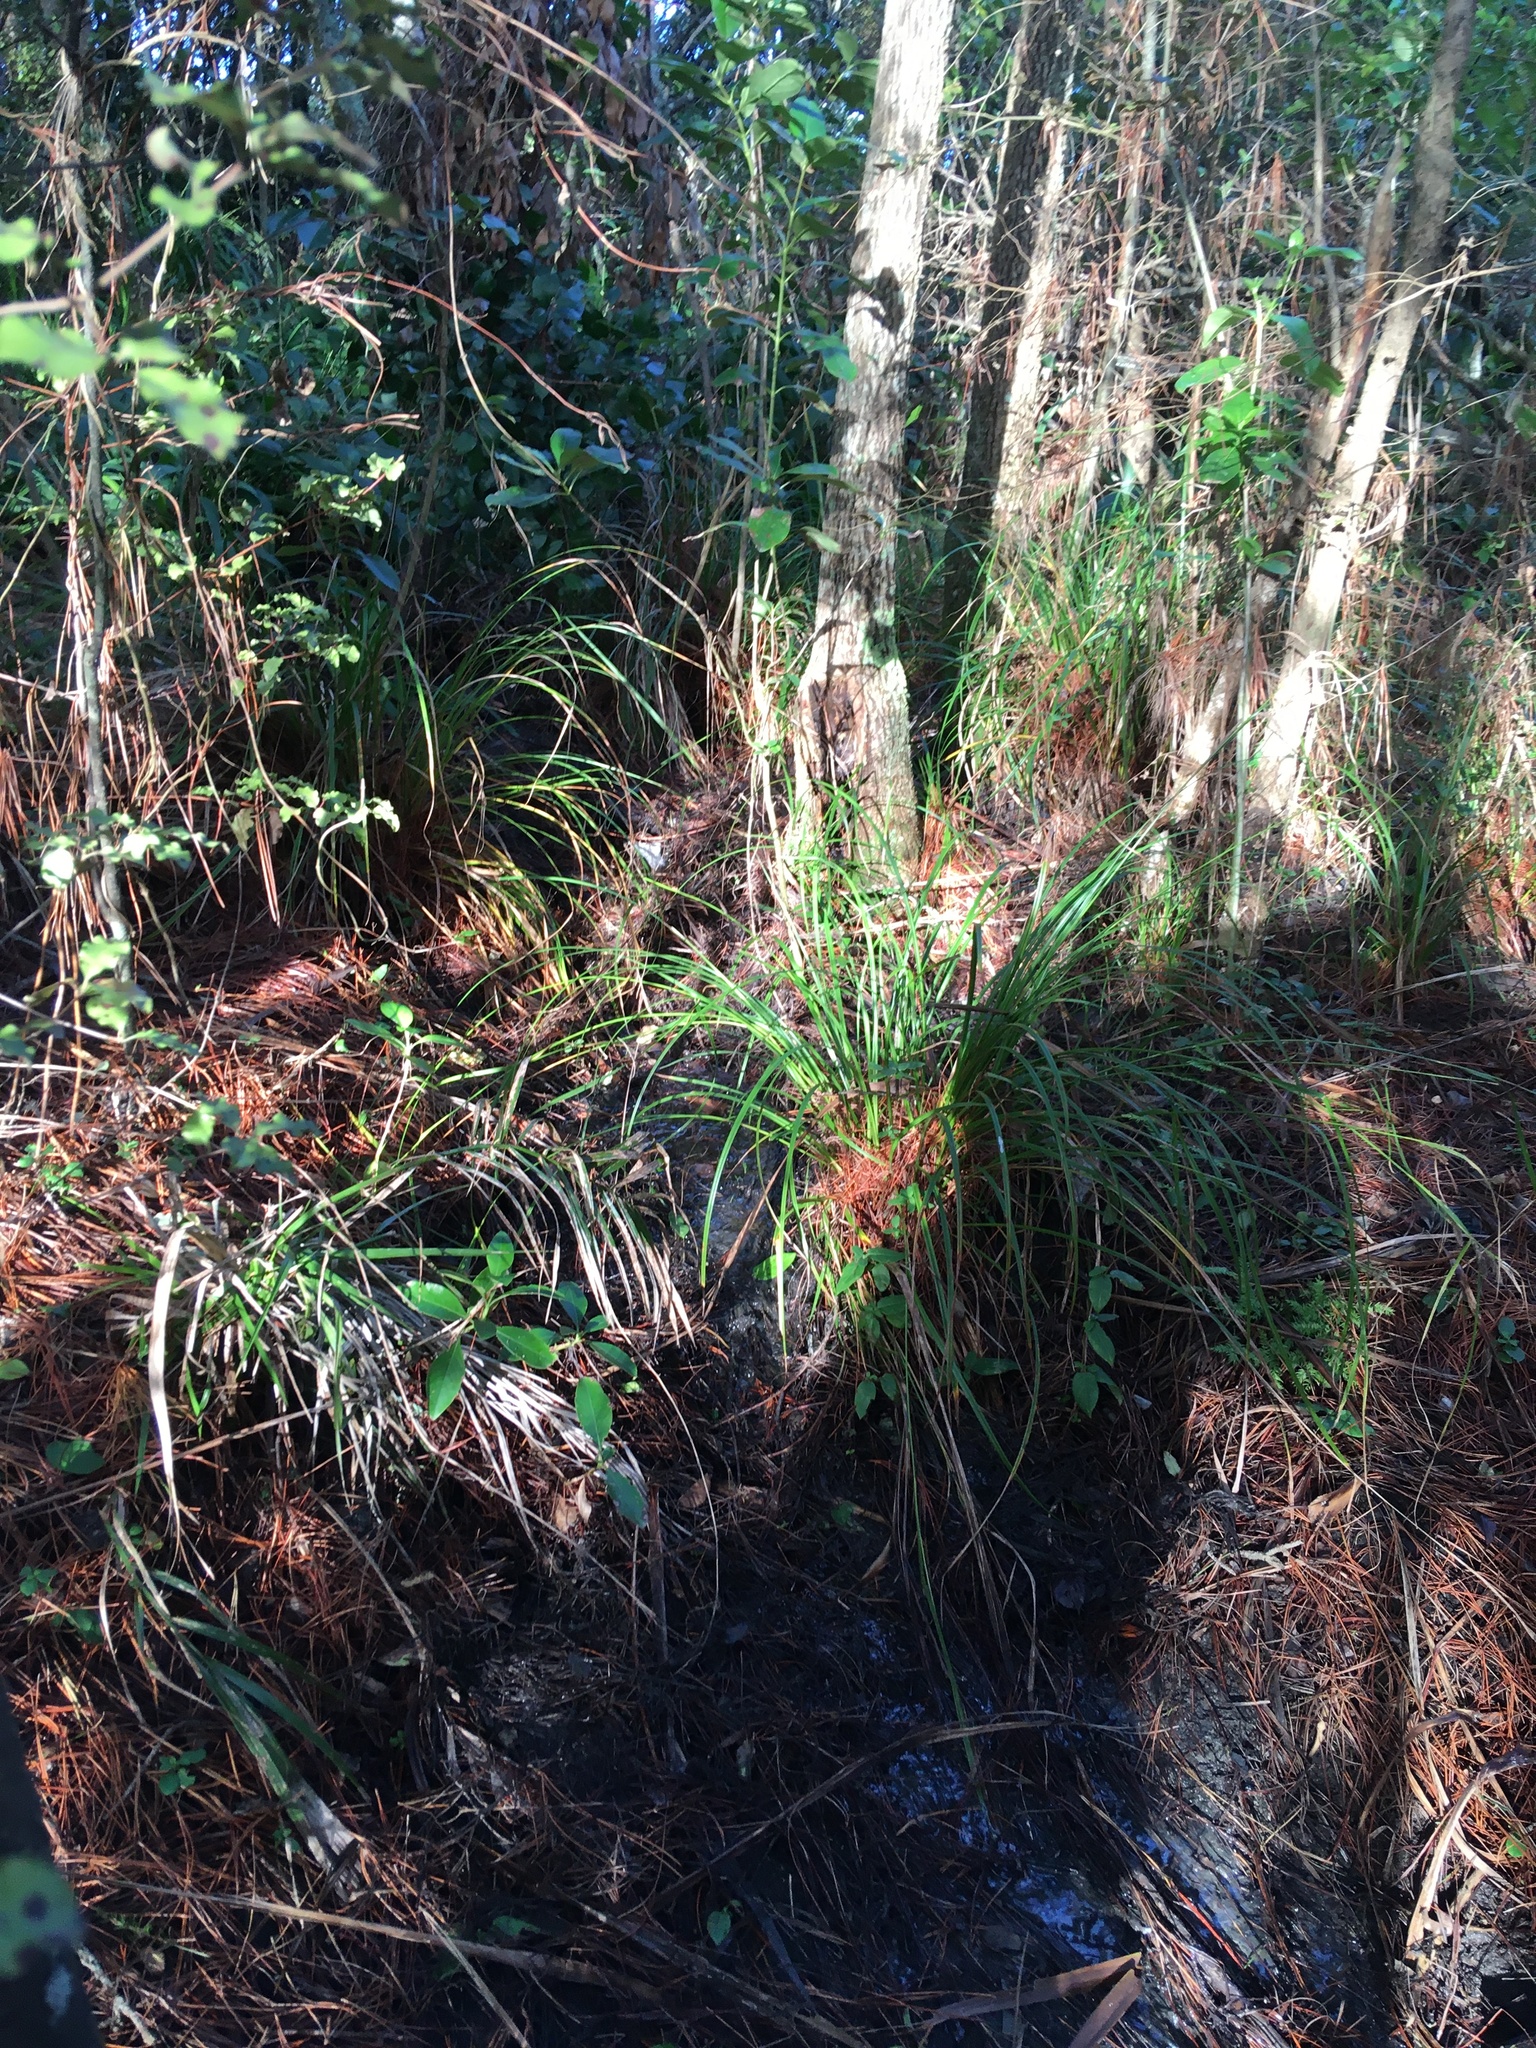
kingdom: Plantae
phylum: Tracheophyta
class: Magnoliopsida
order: Apiales
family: Pittosporaceae
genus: Pittosporum
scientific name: Pittosporum tenuifolium
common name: Kohuhu
